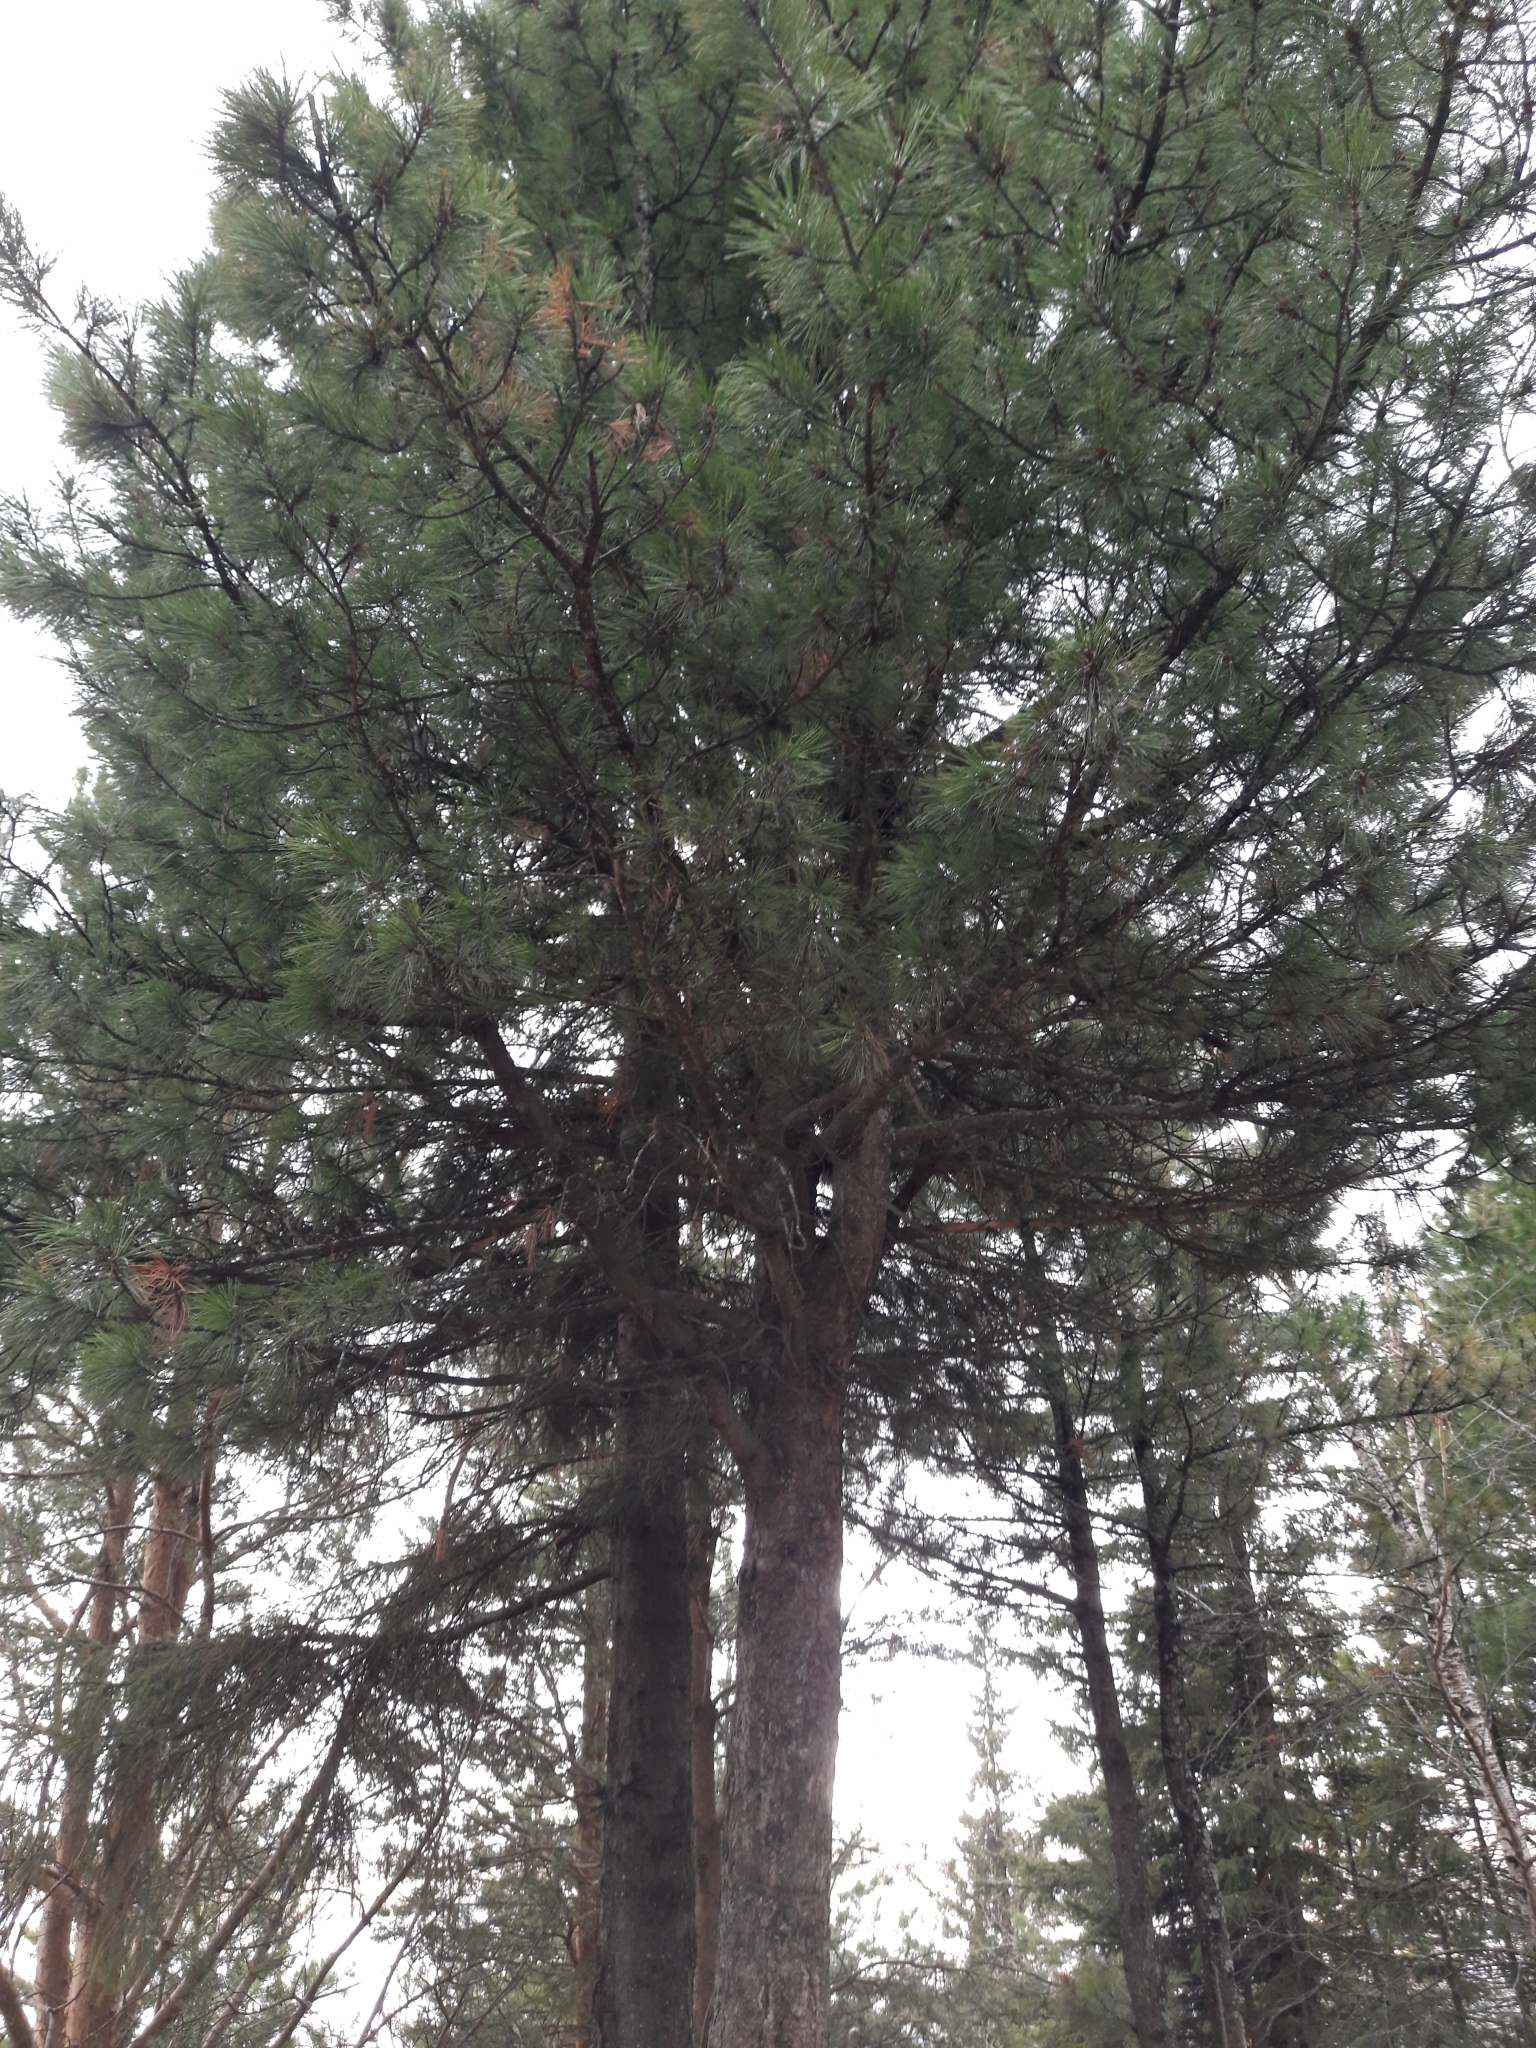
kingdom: Plantae
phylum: Tracheophyta
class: Pinopsida
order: Pinales
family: Pinaceae
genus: Pinus
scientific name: Pinus sibirica
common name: Siberian pine
